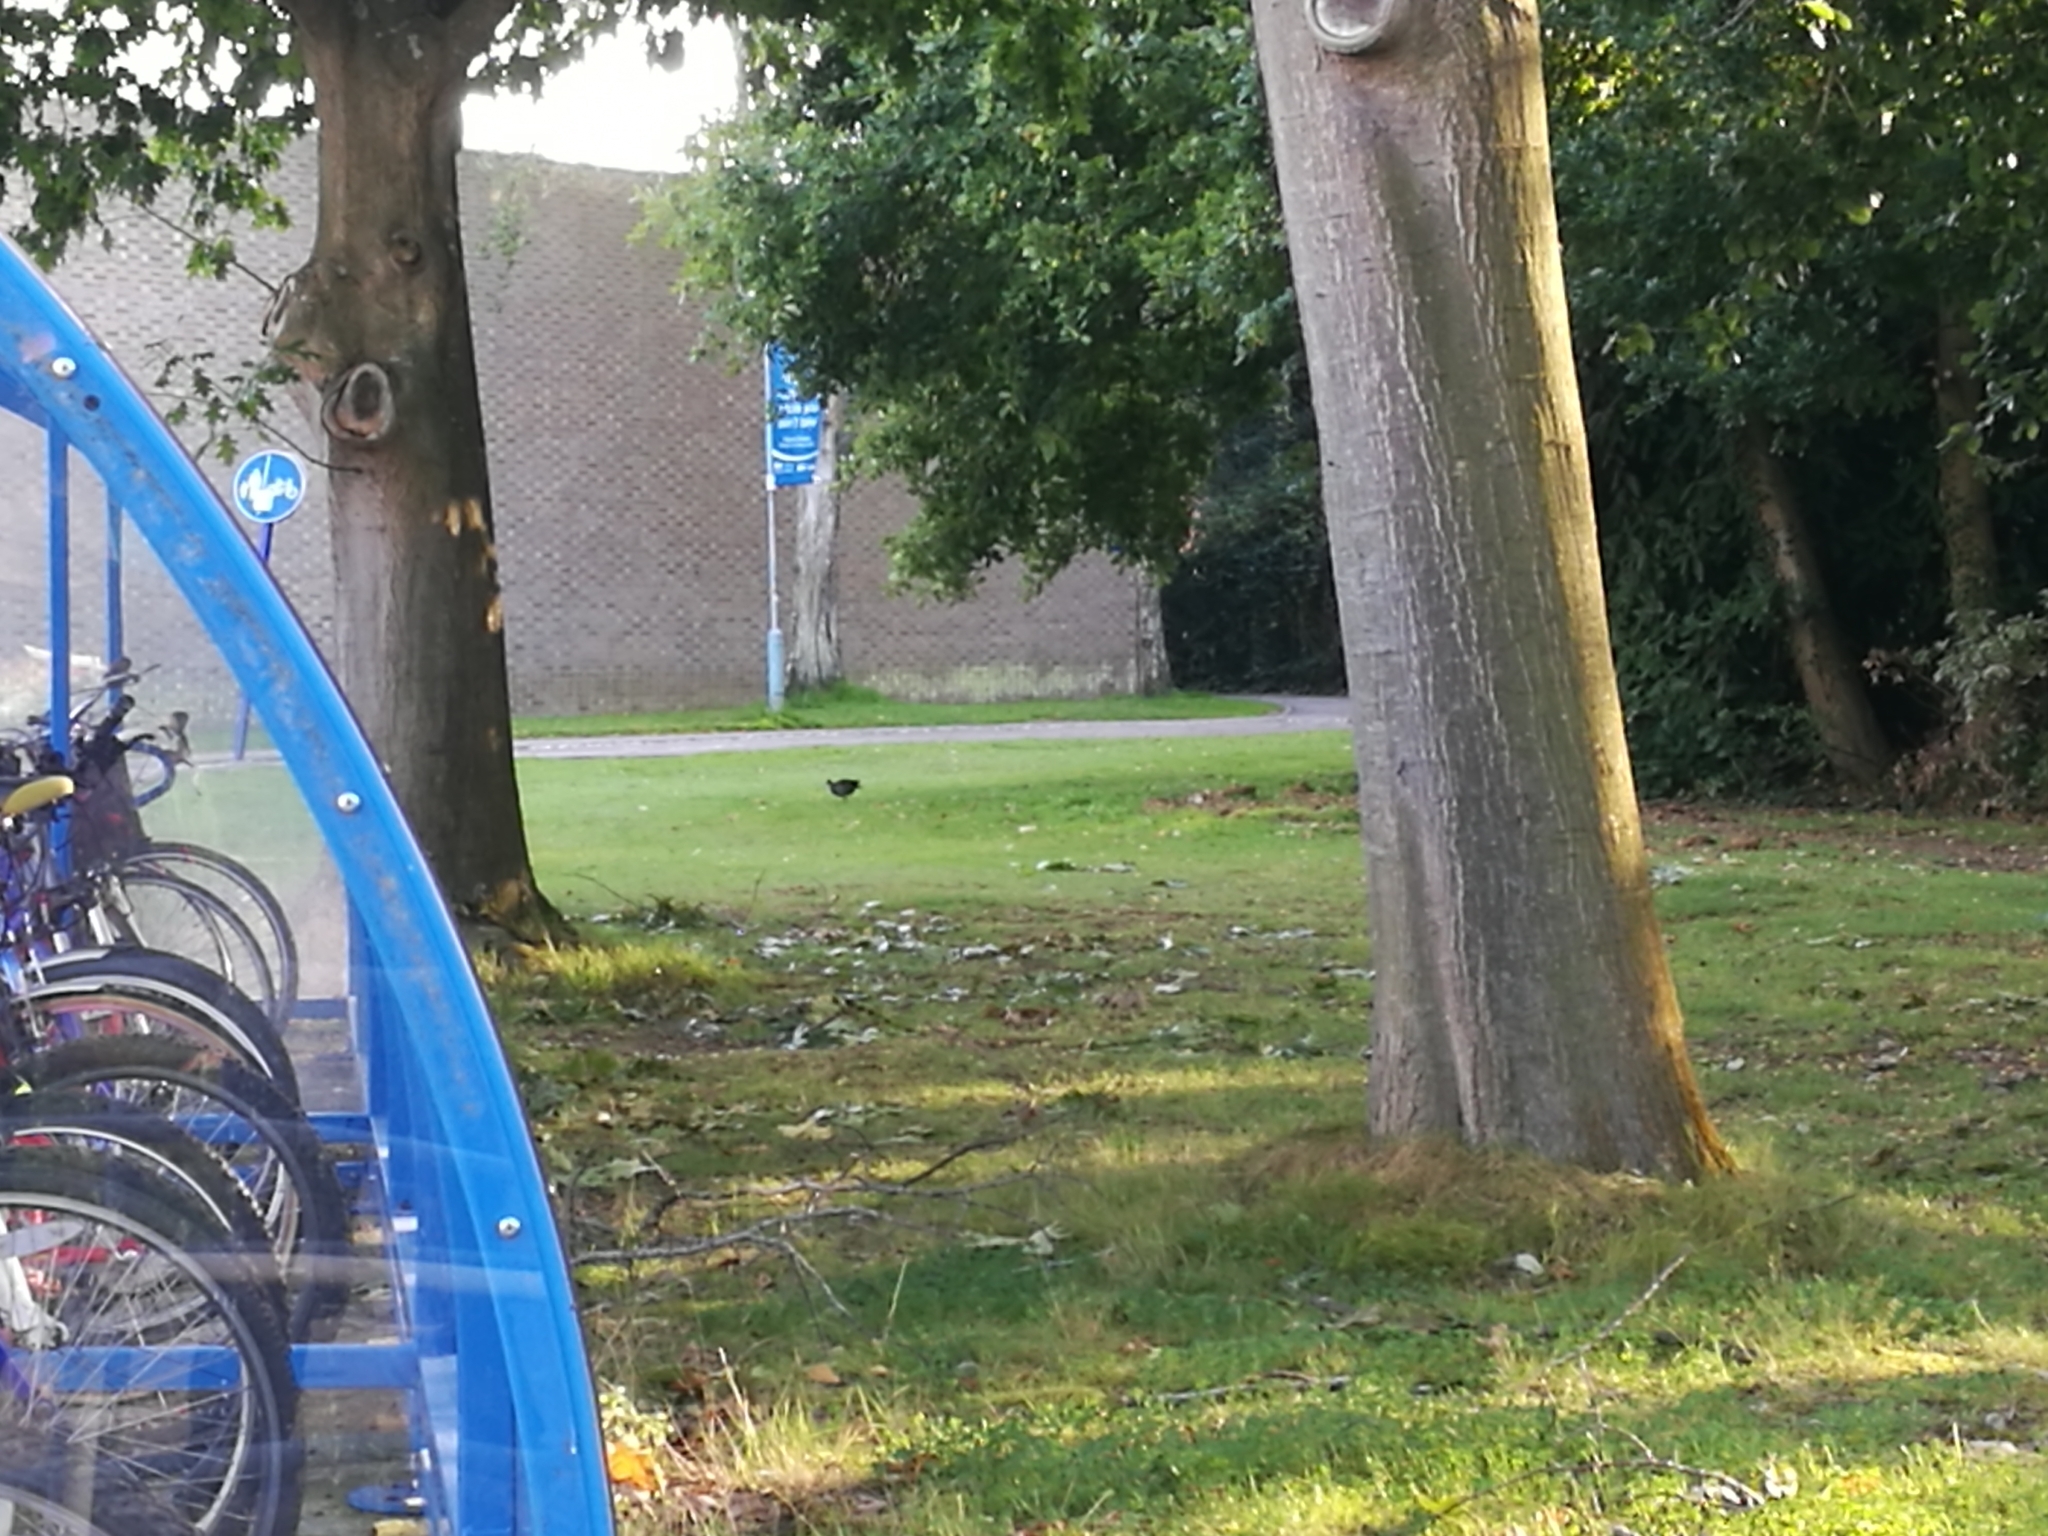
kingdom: Animalia
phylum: Chordata
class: Aves
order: Gruiformes
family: Rallidae
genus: Gallinula
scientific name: Gallinula chloropus
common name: Common moorhen
